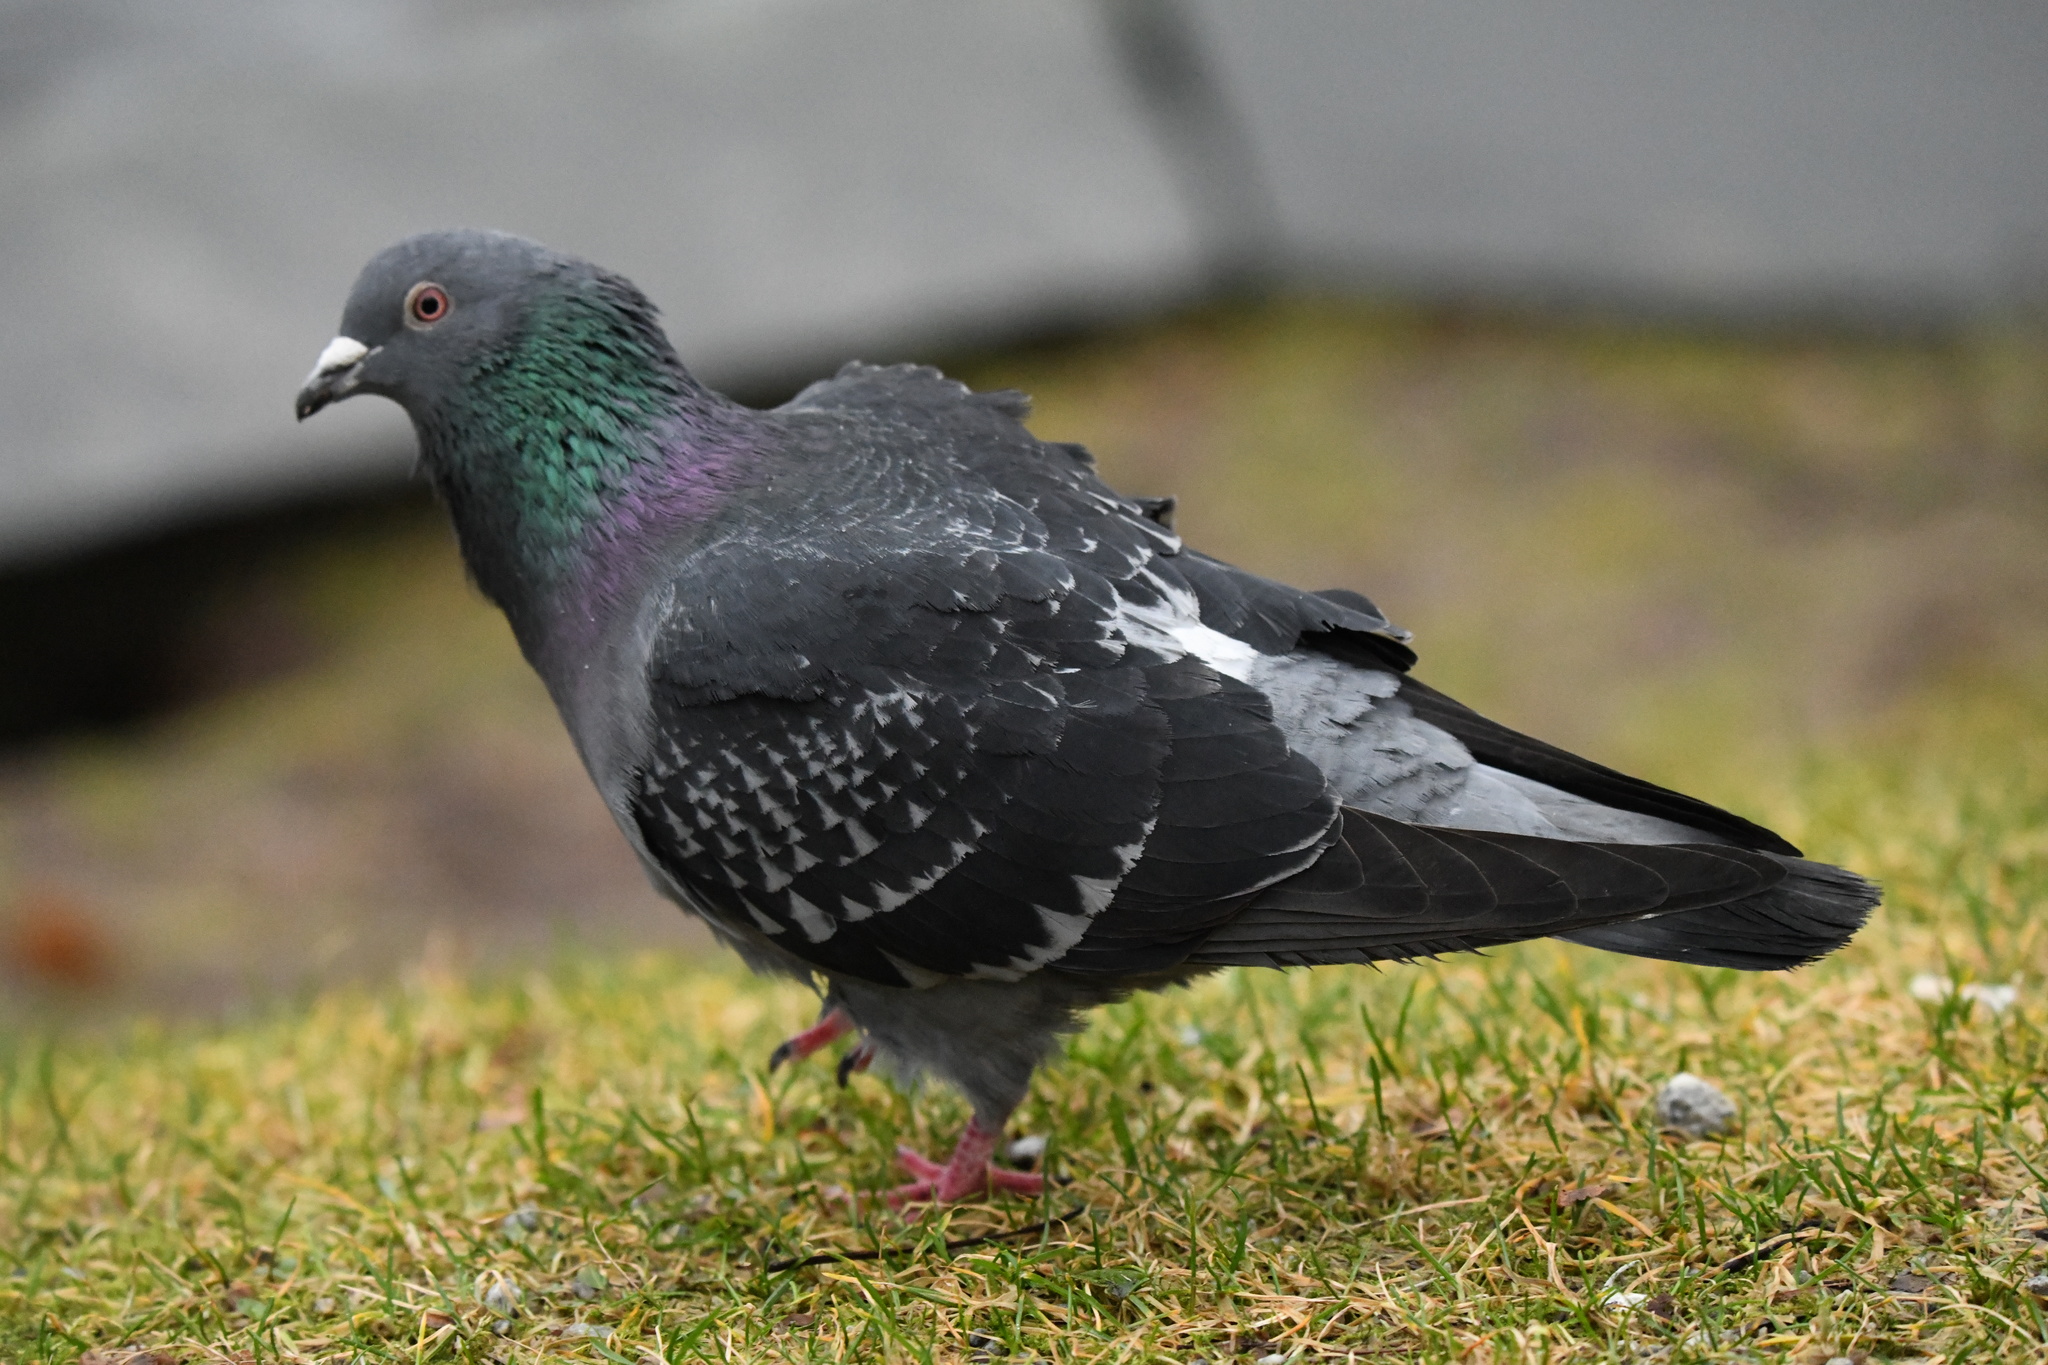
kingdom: Animalia
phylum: Chordata
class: Aves
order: Columbiformes
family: Columbidae
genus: Columba
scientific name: Columba livia
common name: Rock pigeon
